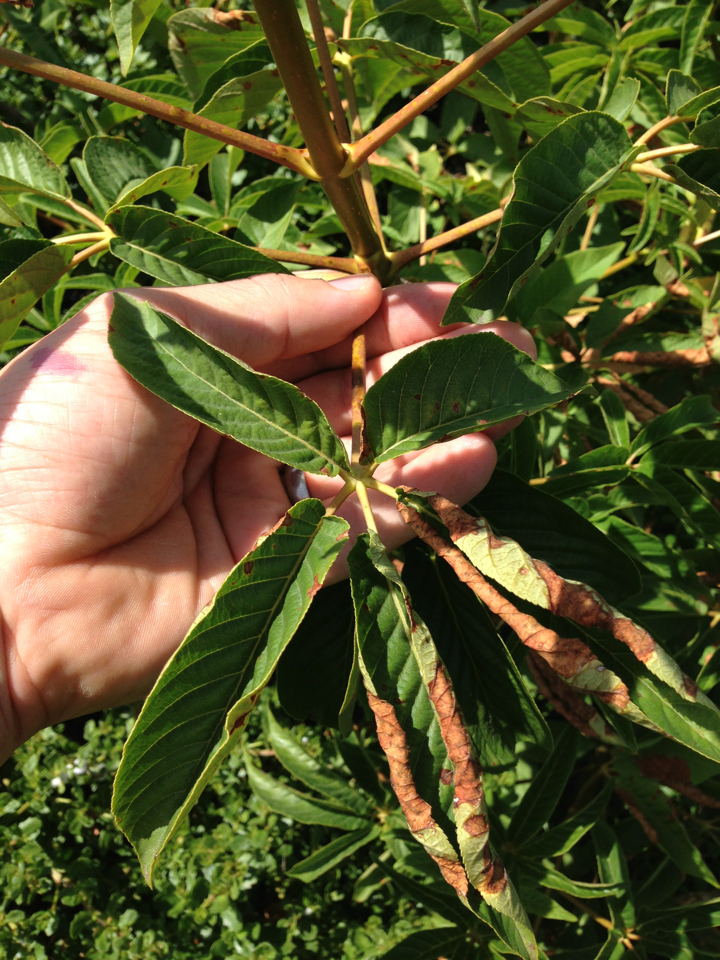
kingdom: Plantae
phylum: Tracheophyta
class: Magnoliopsida
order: Sapindales
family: Sapindaceae
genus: Aesculus
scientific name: Aesculus californica
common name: California buckeye
